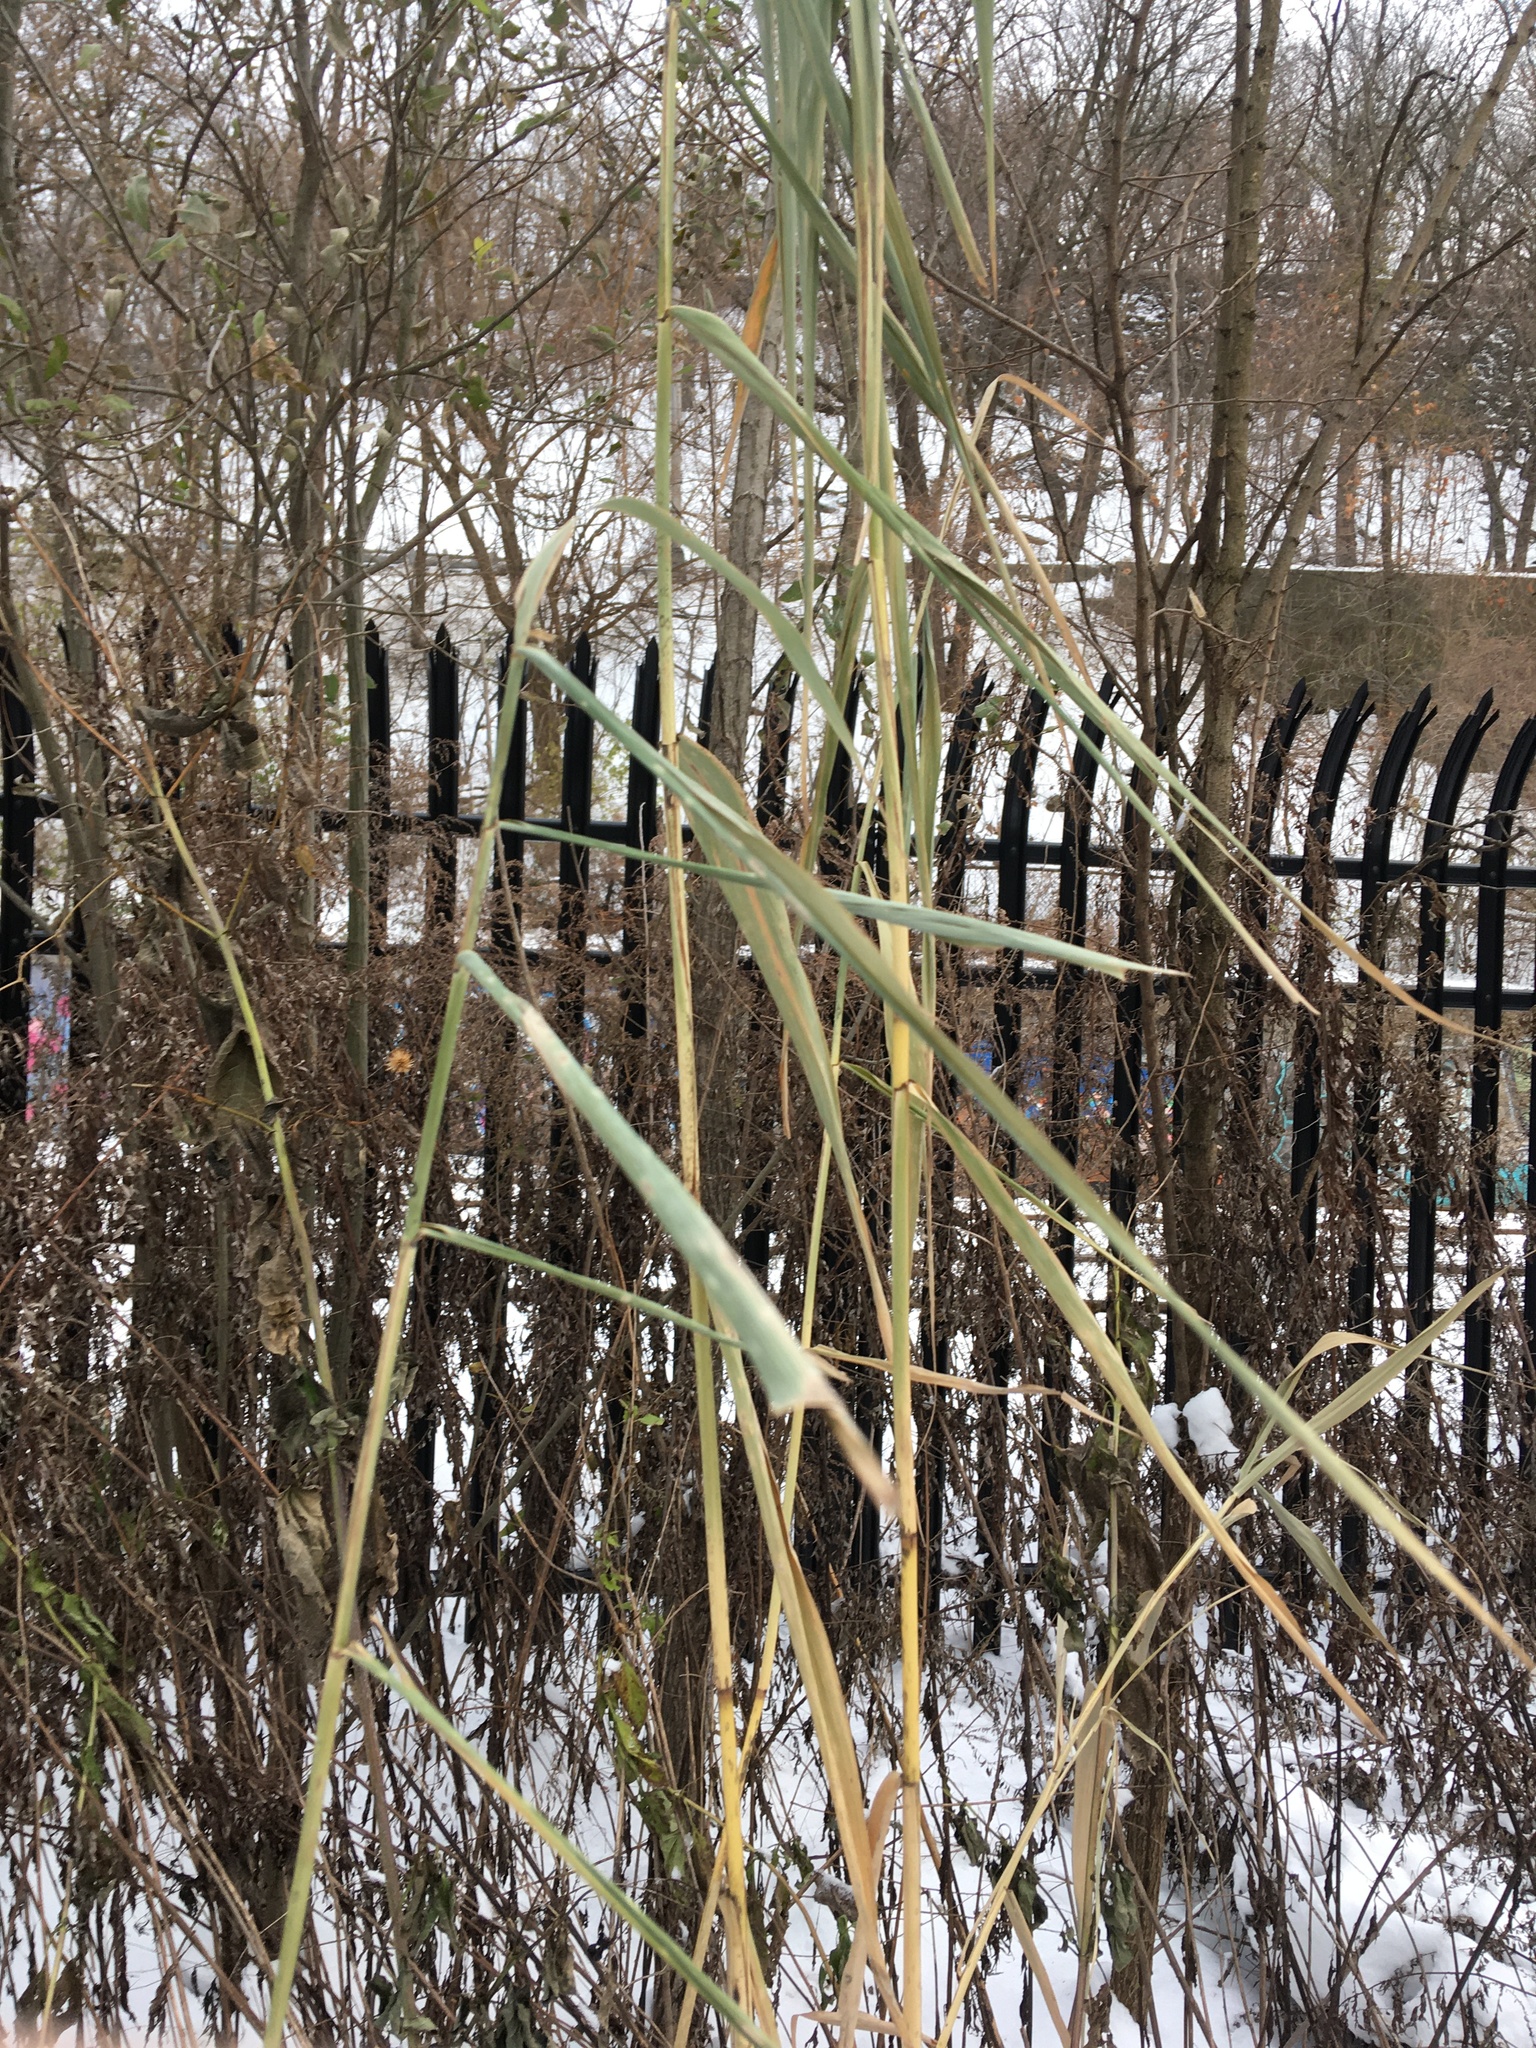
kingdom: Plantae
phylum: Tracheophyta
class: Liliopsida
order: Poales
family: Poaceae
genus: Phragmites
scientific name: Phragmites australis
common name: Common reed
